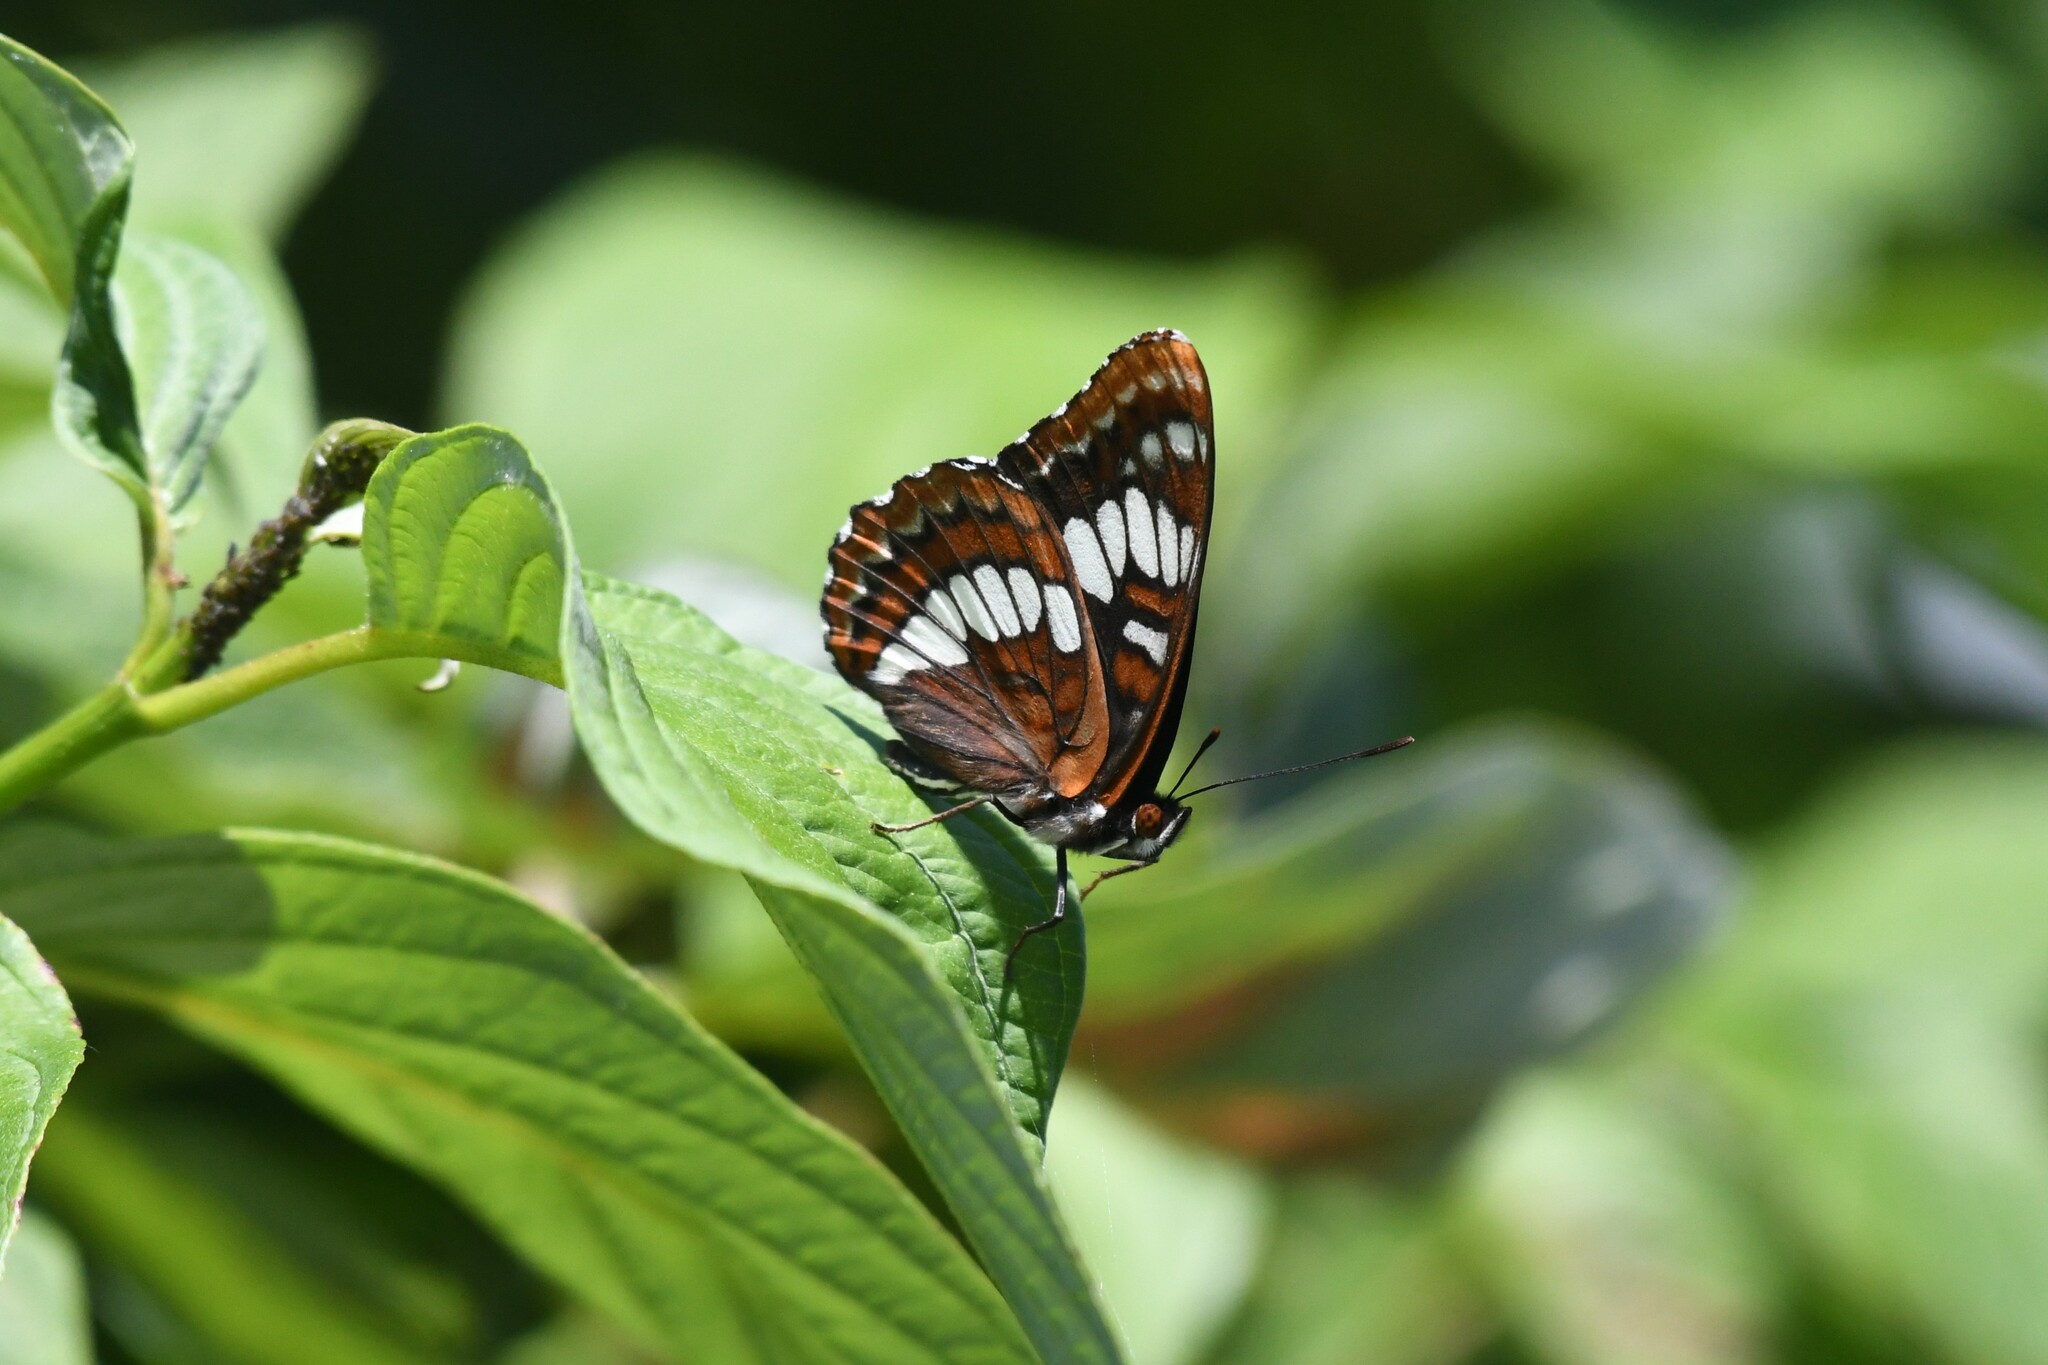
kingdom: Animalia
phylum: Arthropoda
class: Insecta
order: Lepidoptera
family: Nymphalidae
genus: Limenitis
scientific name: Limenitis lorquini
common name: Lorquin's admiral
